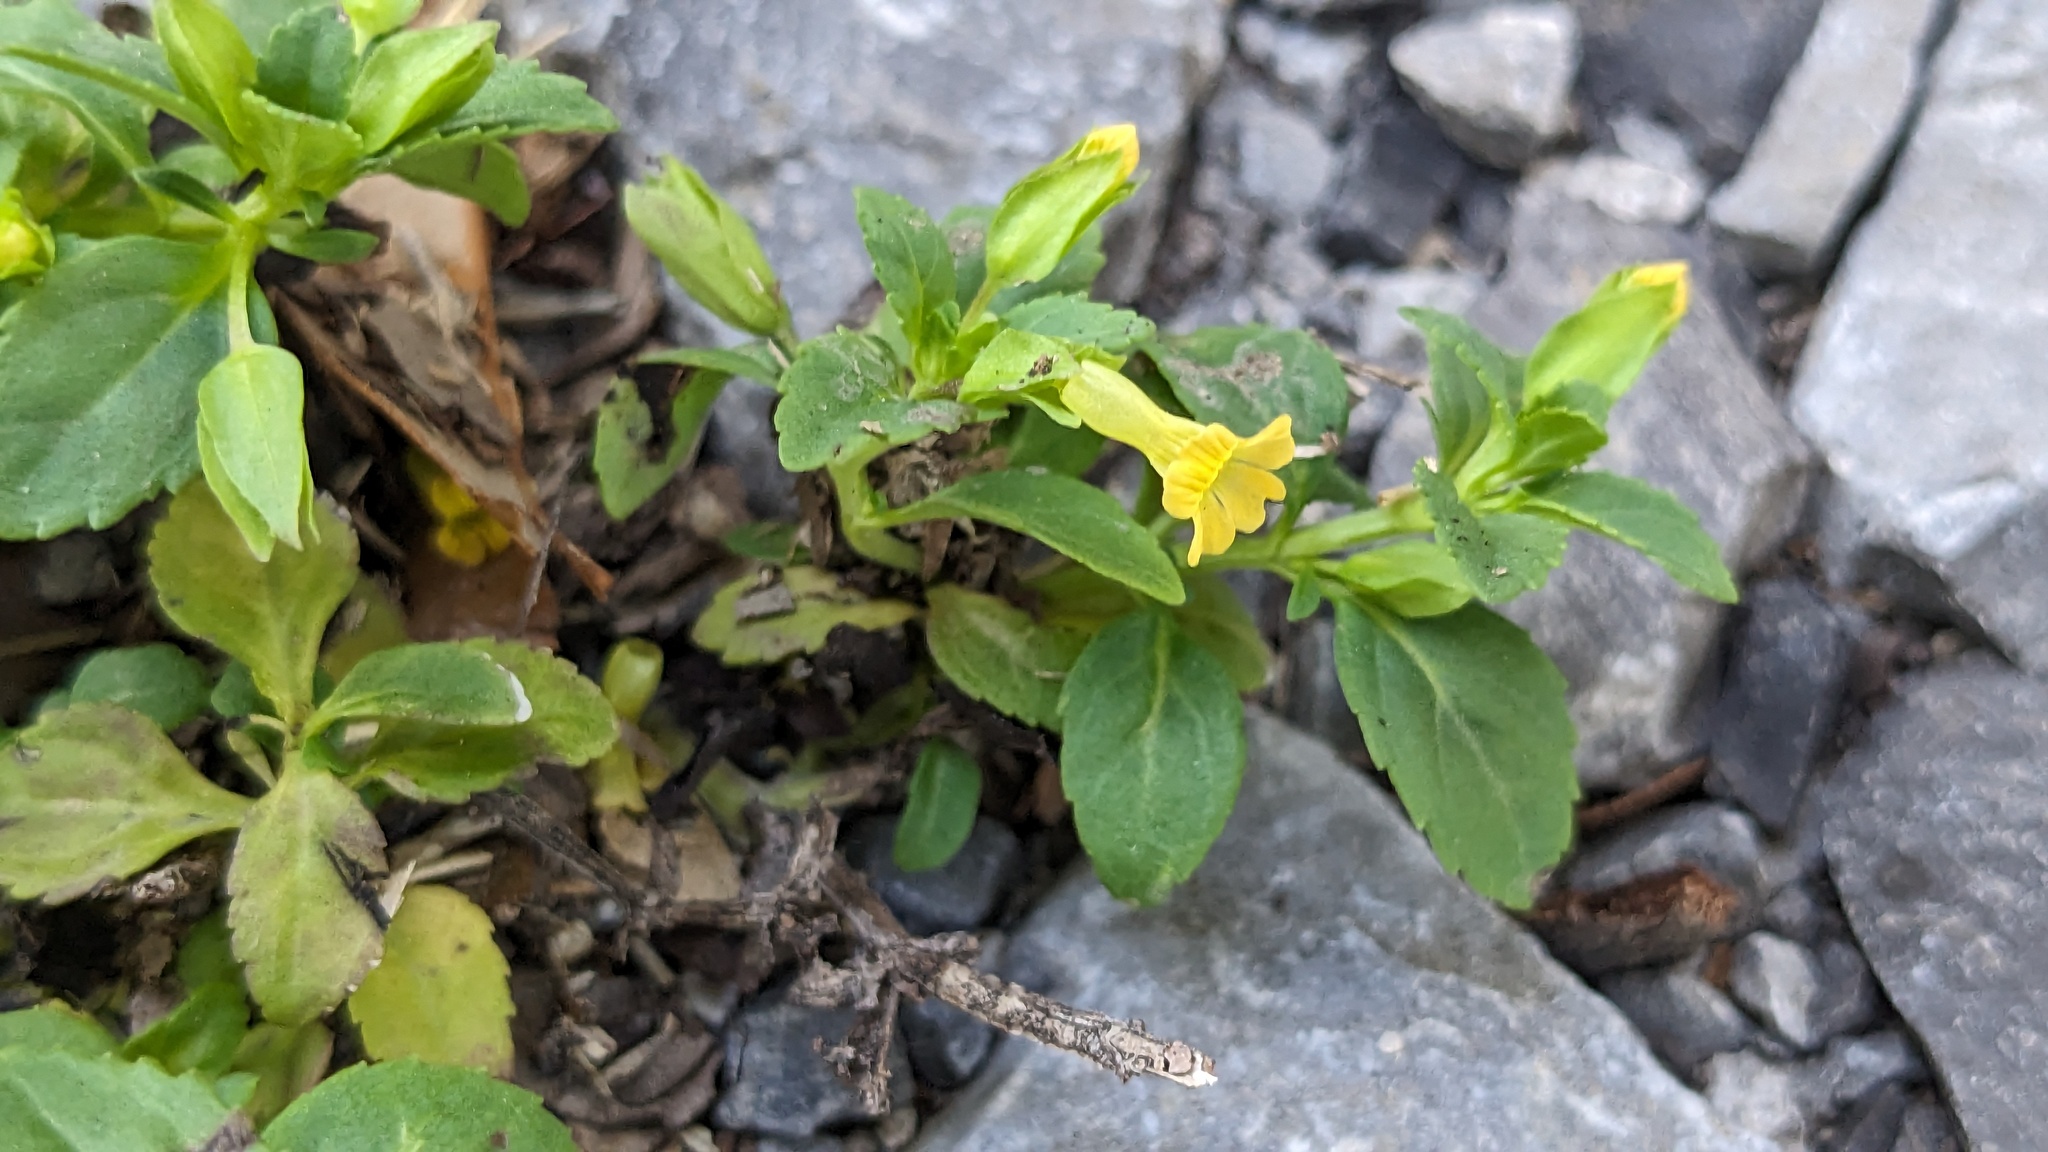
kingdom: Plantae
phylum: Tracheophyta
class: Magnoliopsida
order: Lamiales
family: Plantaginaceae
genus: Mecardonia
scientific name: Mecardonia procumbens
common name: Baby jump-up
